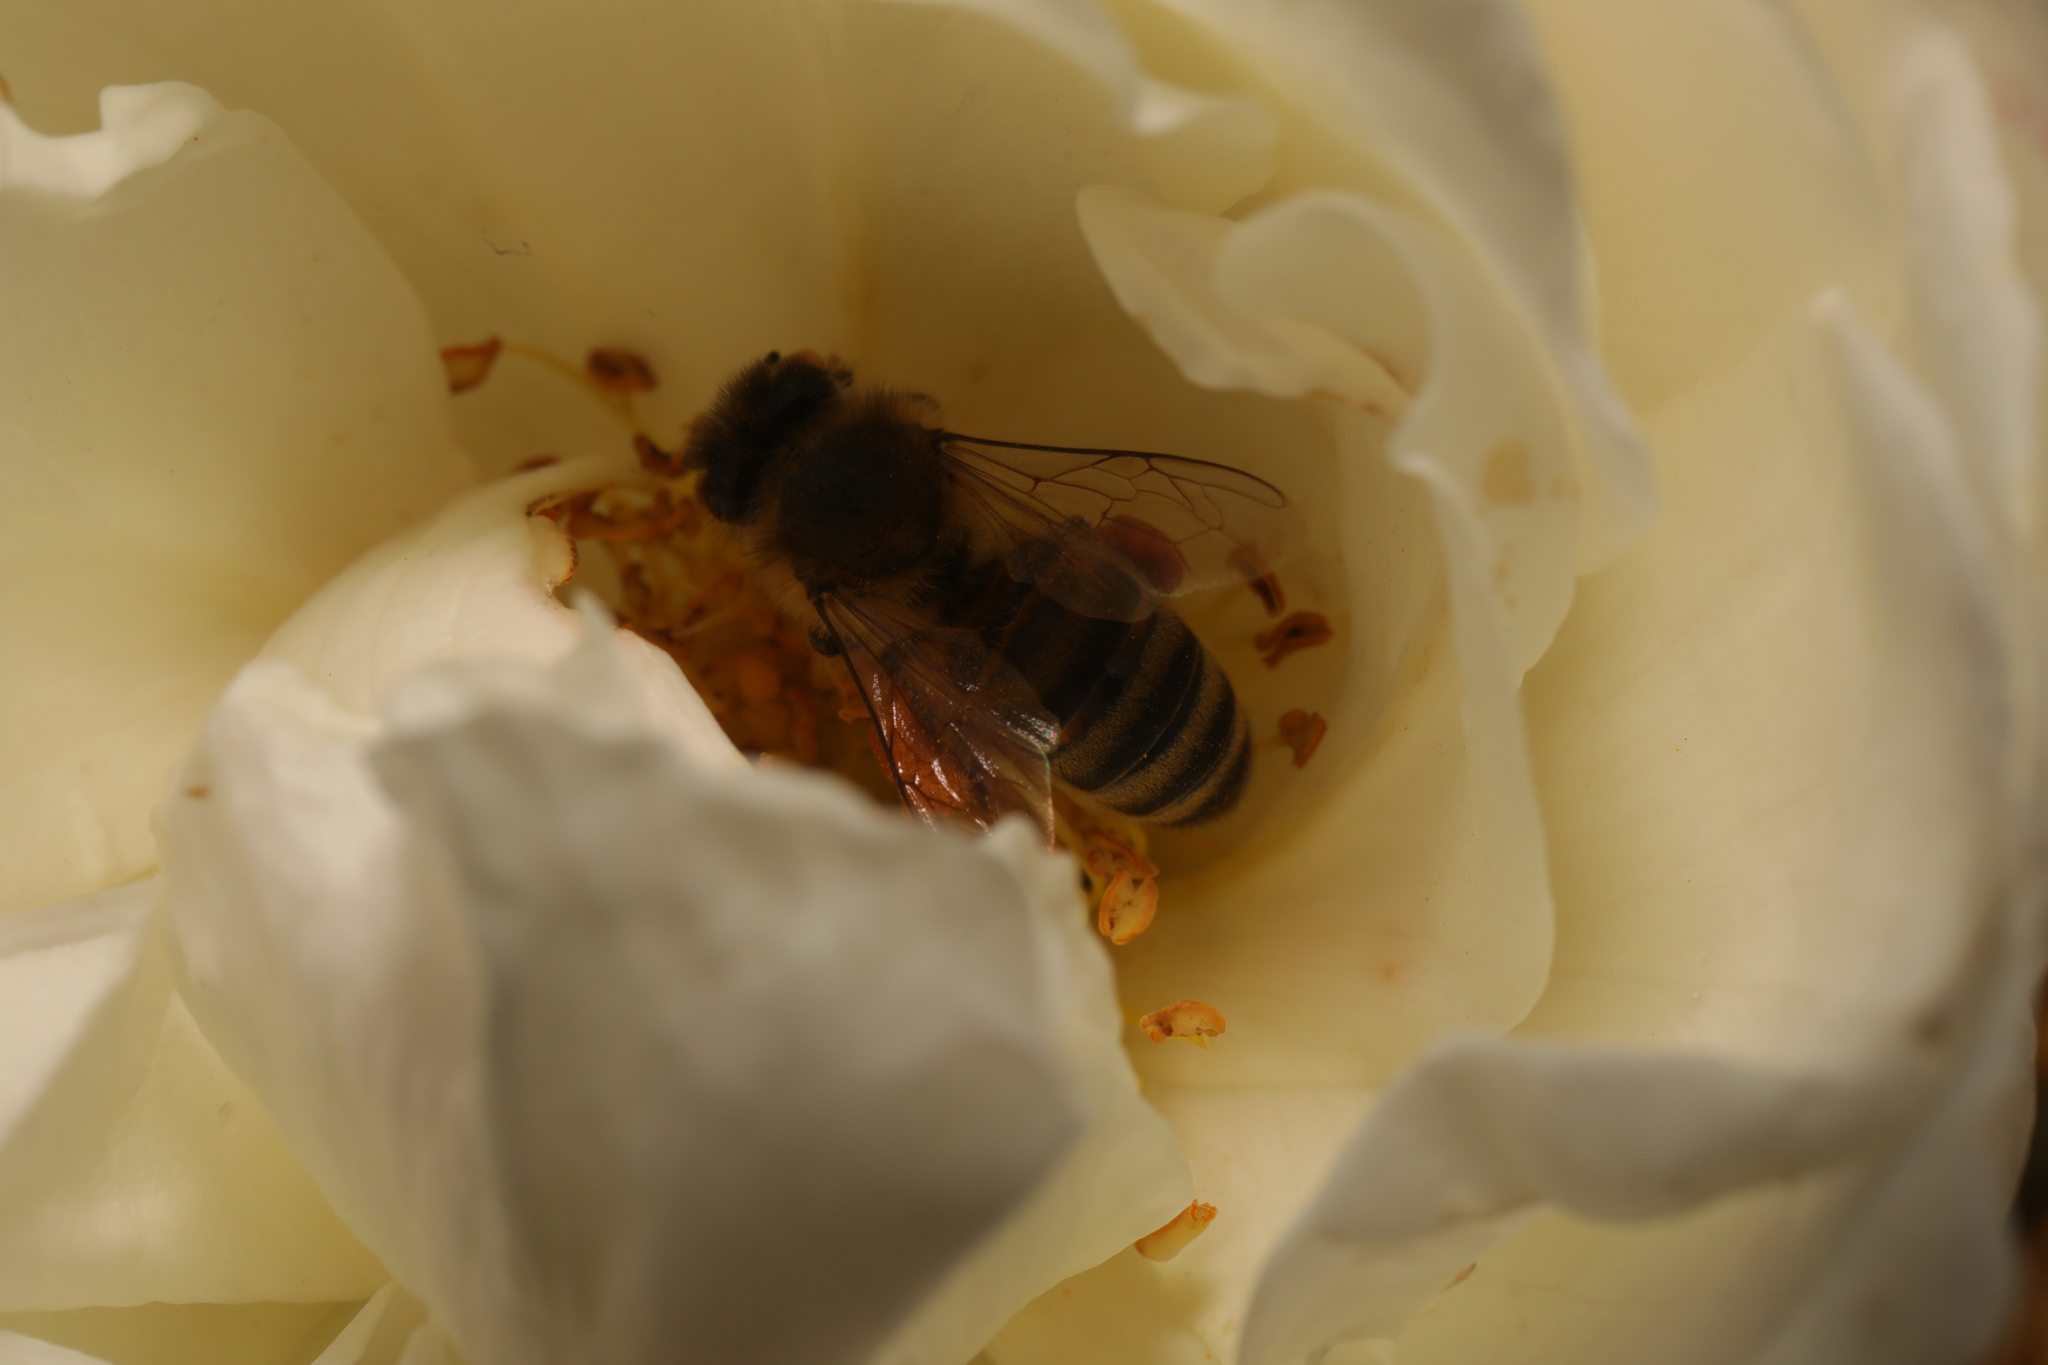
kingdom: Animalia
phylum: Arthropoda
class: Insecta
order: Hymenoptera
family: Apidae
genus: Apis
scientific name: Apis mellifera
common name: Honey bee
